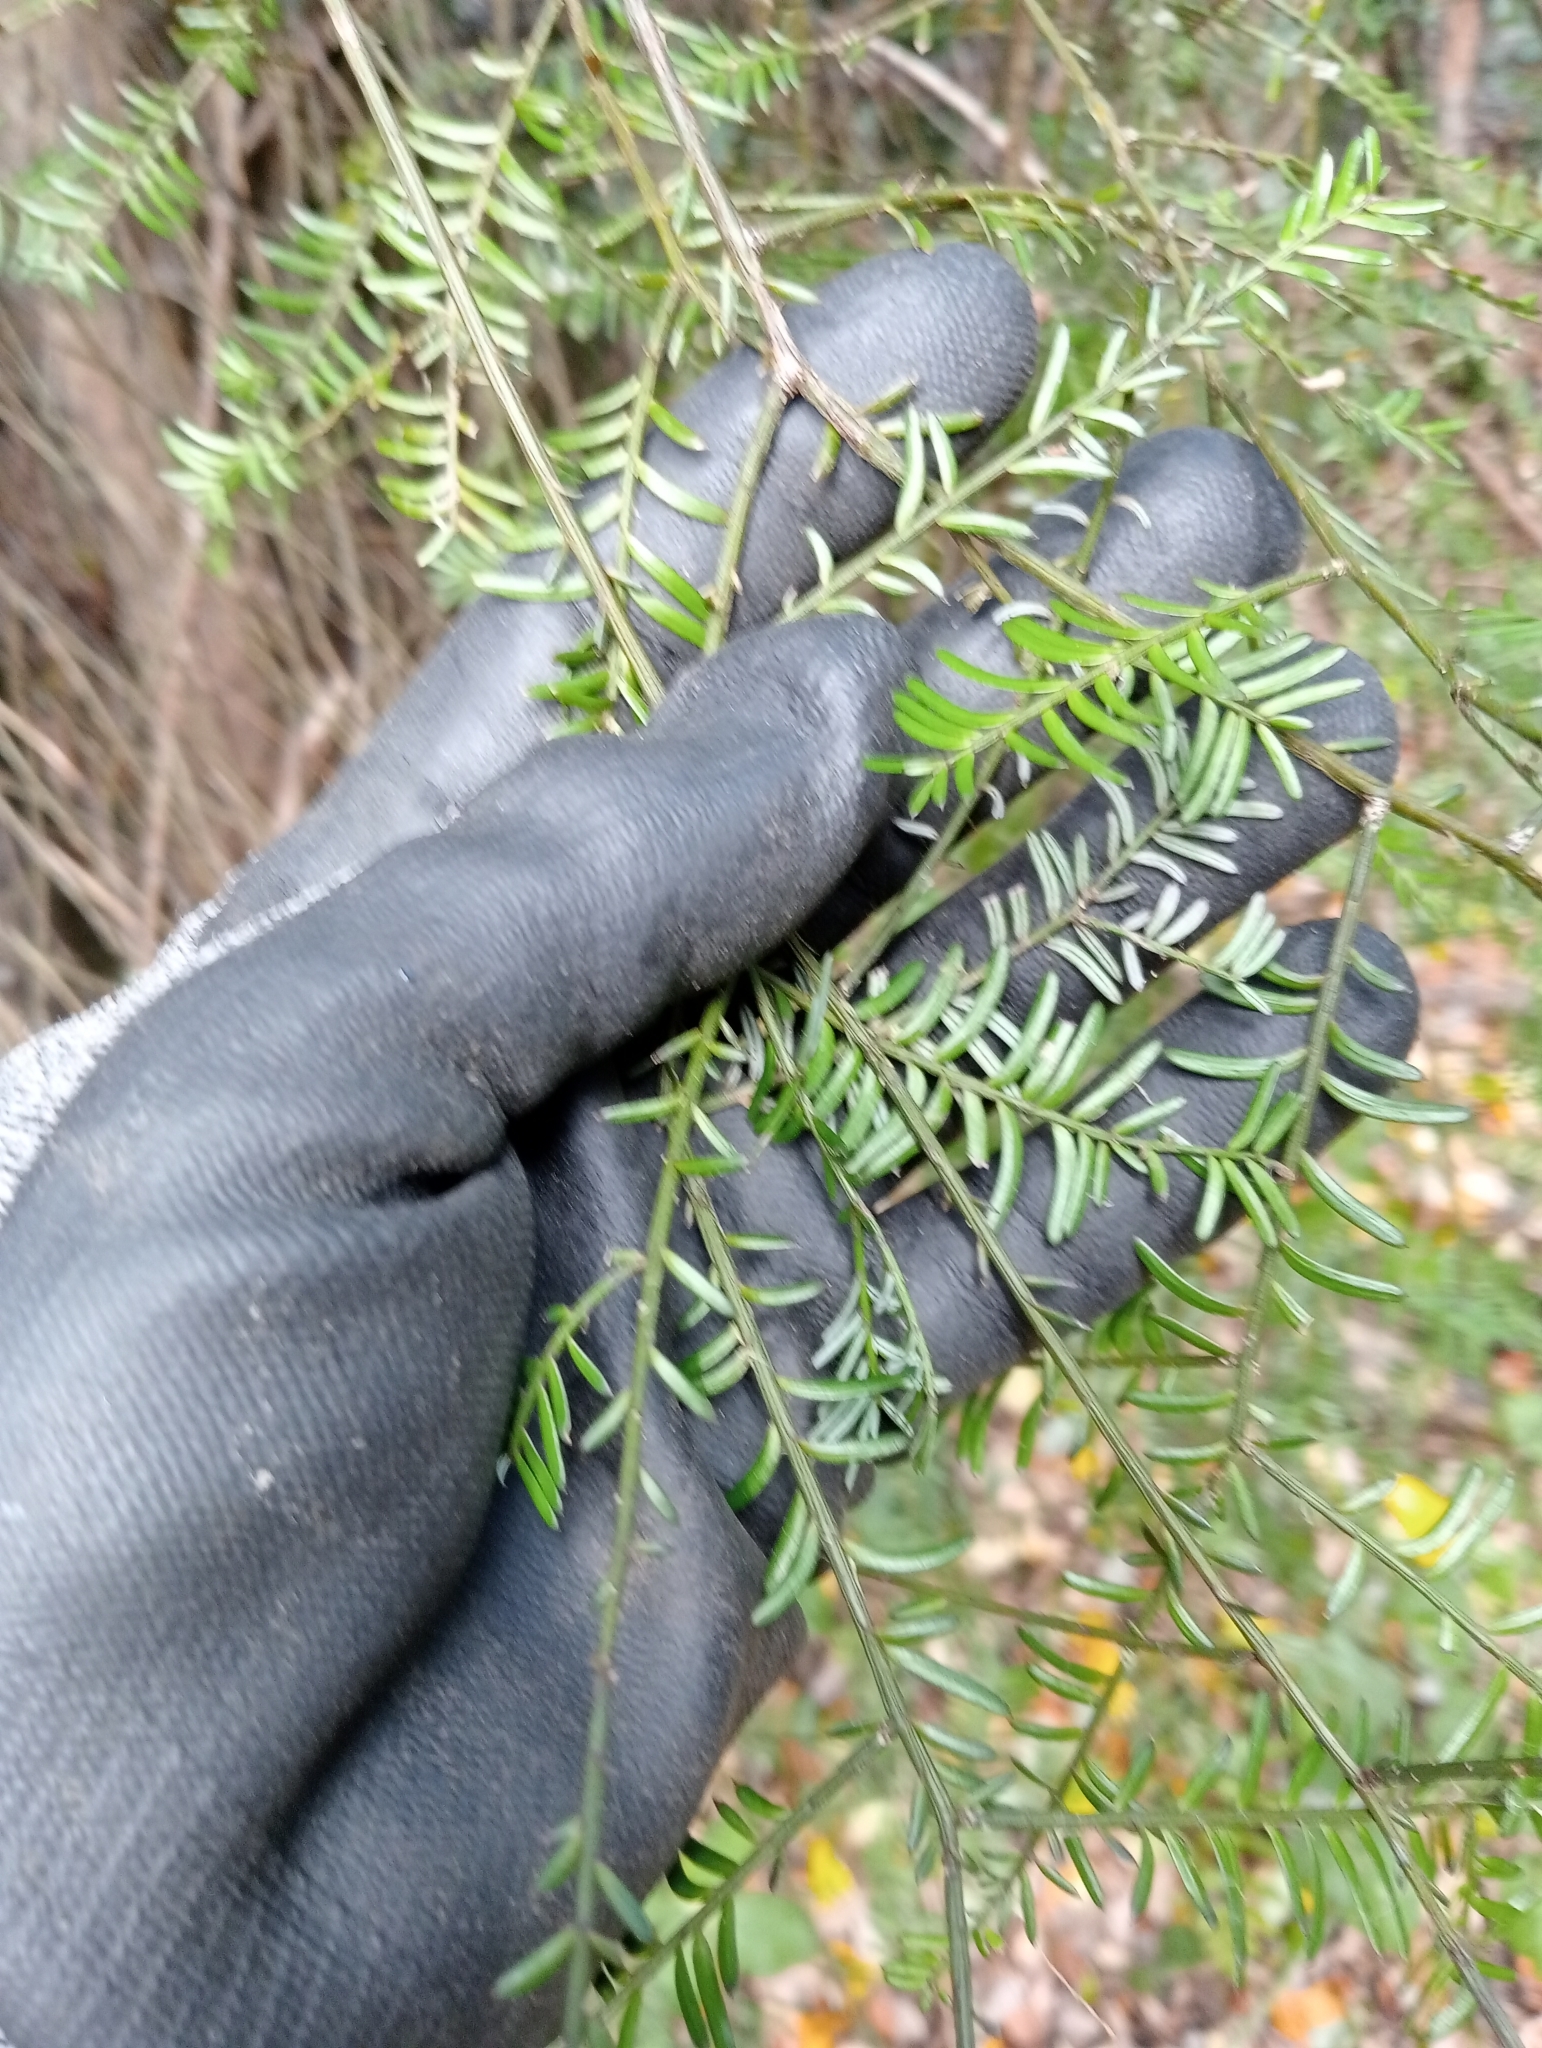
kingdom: Plantae
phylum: Tracheophyta
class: Pinopsida
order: Pinales
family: Podocarpaceae
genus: Prumnopitys
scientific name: Prumnopitys taxifolia
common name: Matai
